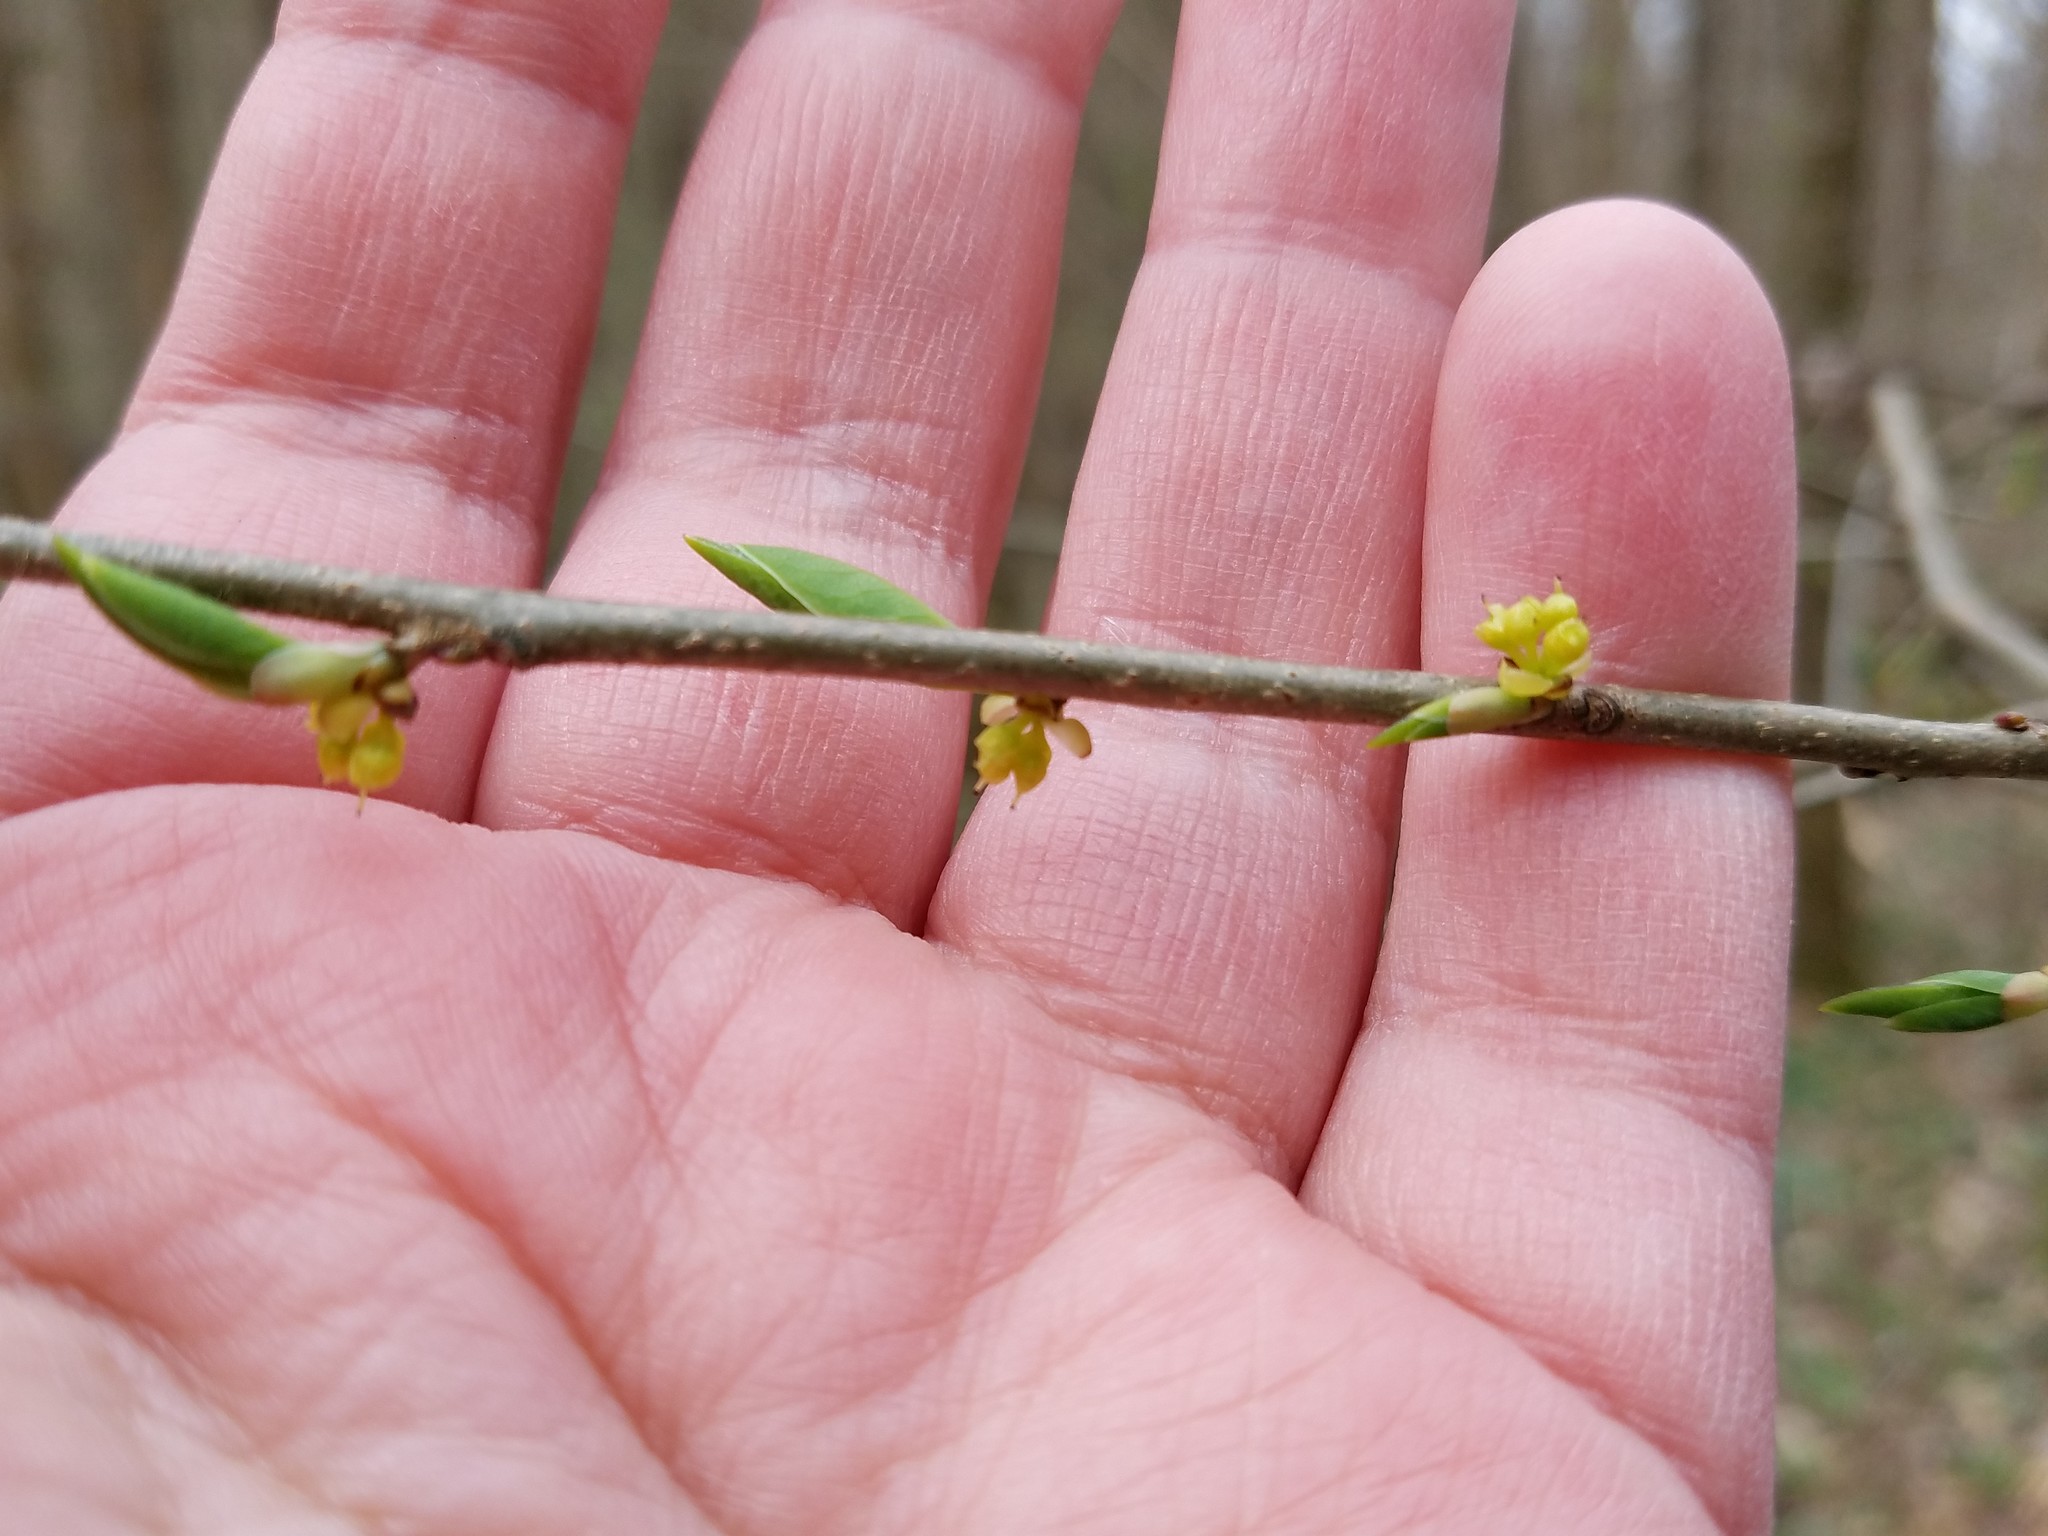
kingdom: Plantae
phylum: Tracheophyta
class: Magnoliopsida
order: Laurales
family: Lauraceae
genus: Lindera
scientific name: Lindera benzoin
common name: Spicebush
